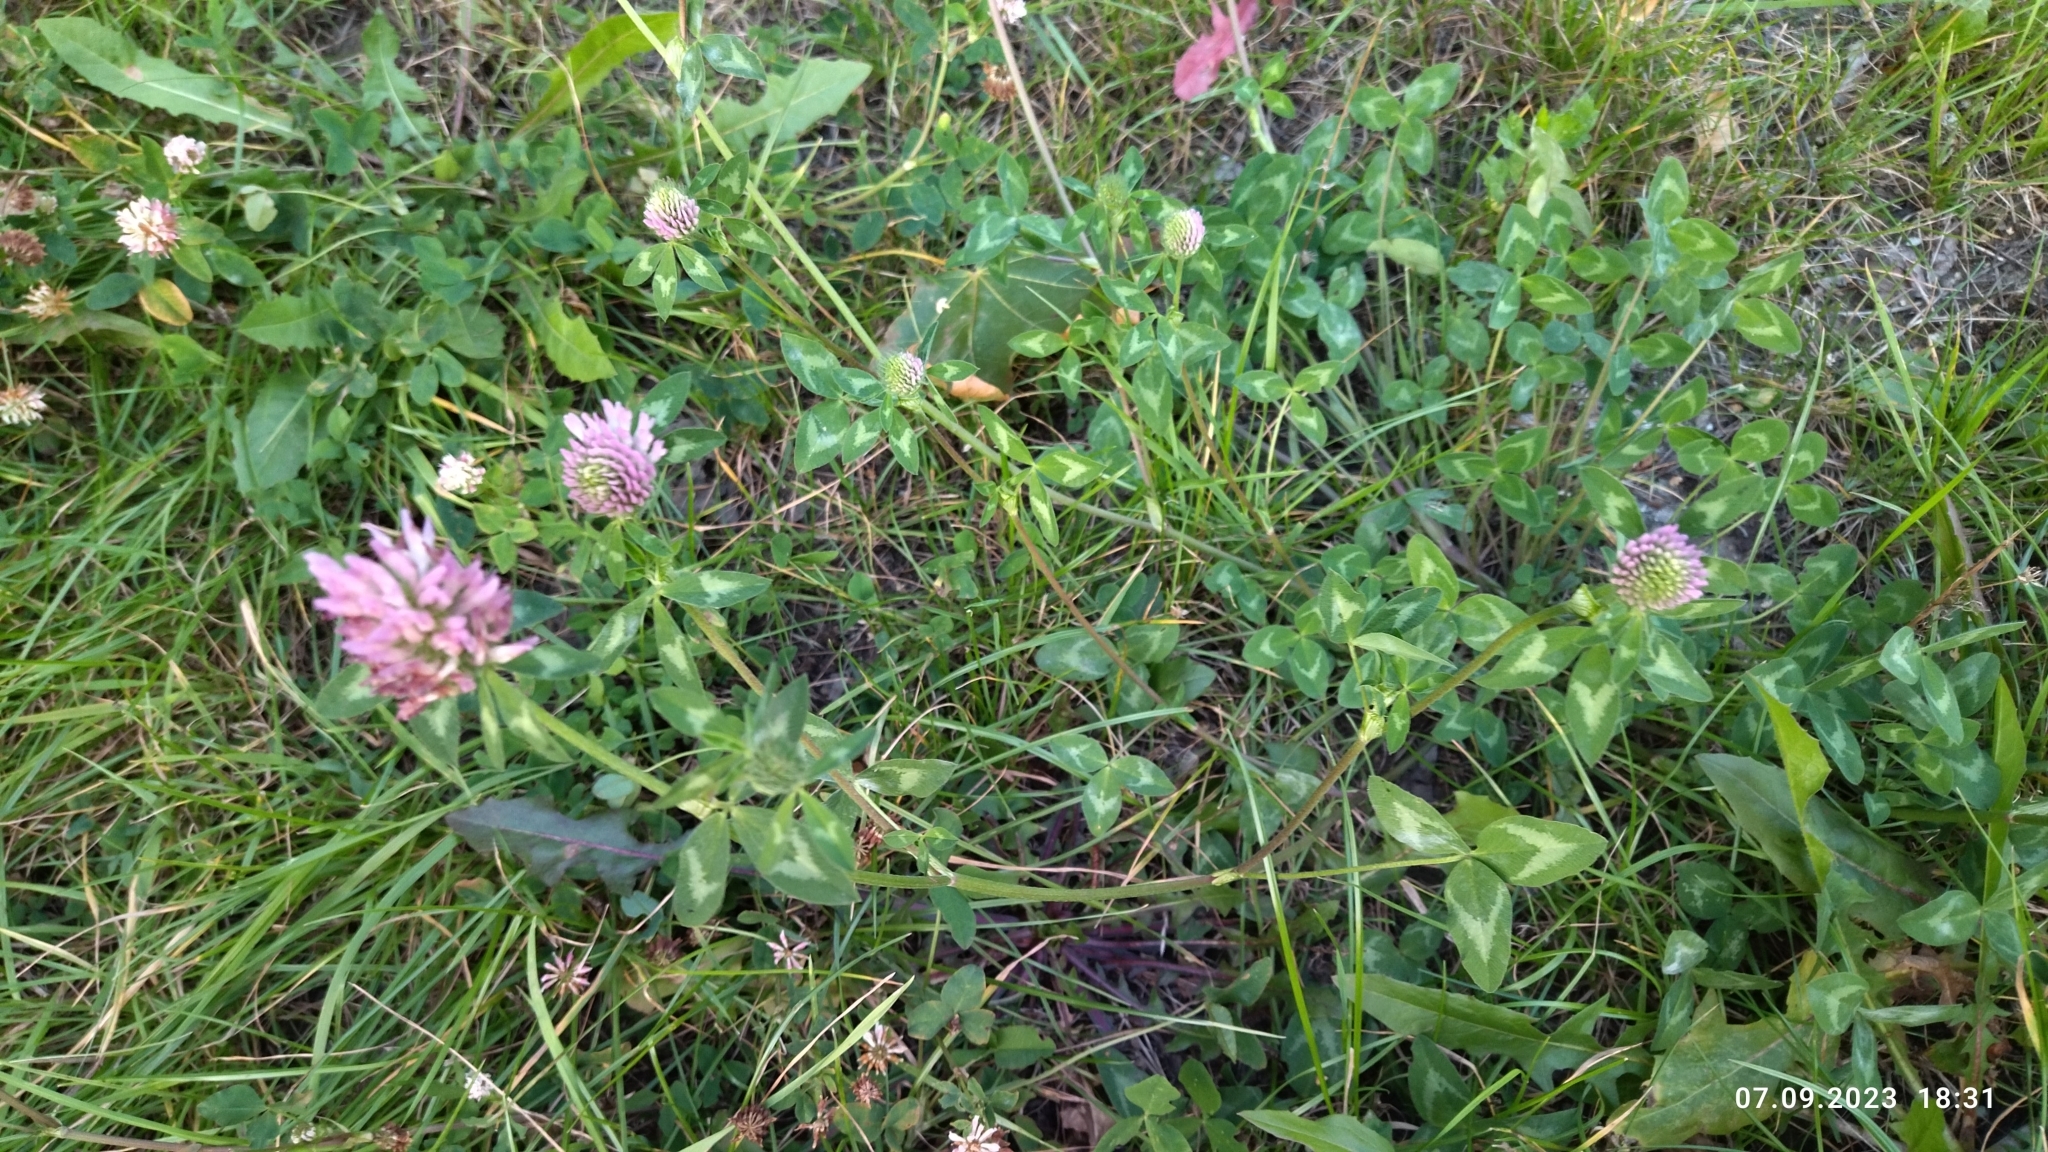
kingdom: Plantae
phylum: Tracheophyta
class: Magnoliopsida
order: Fabales
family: Fabaceae
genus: Trifolium
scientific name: Trifolium pratense
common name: Red clover
